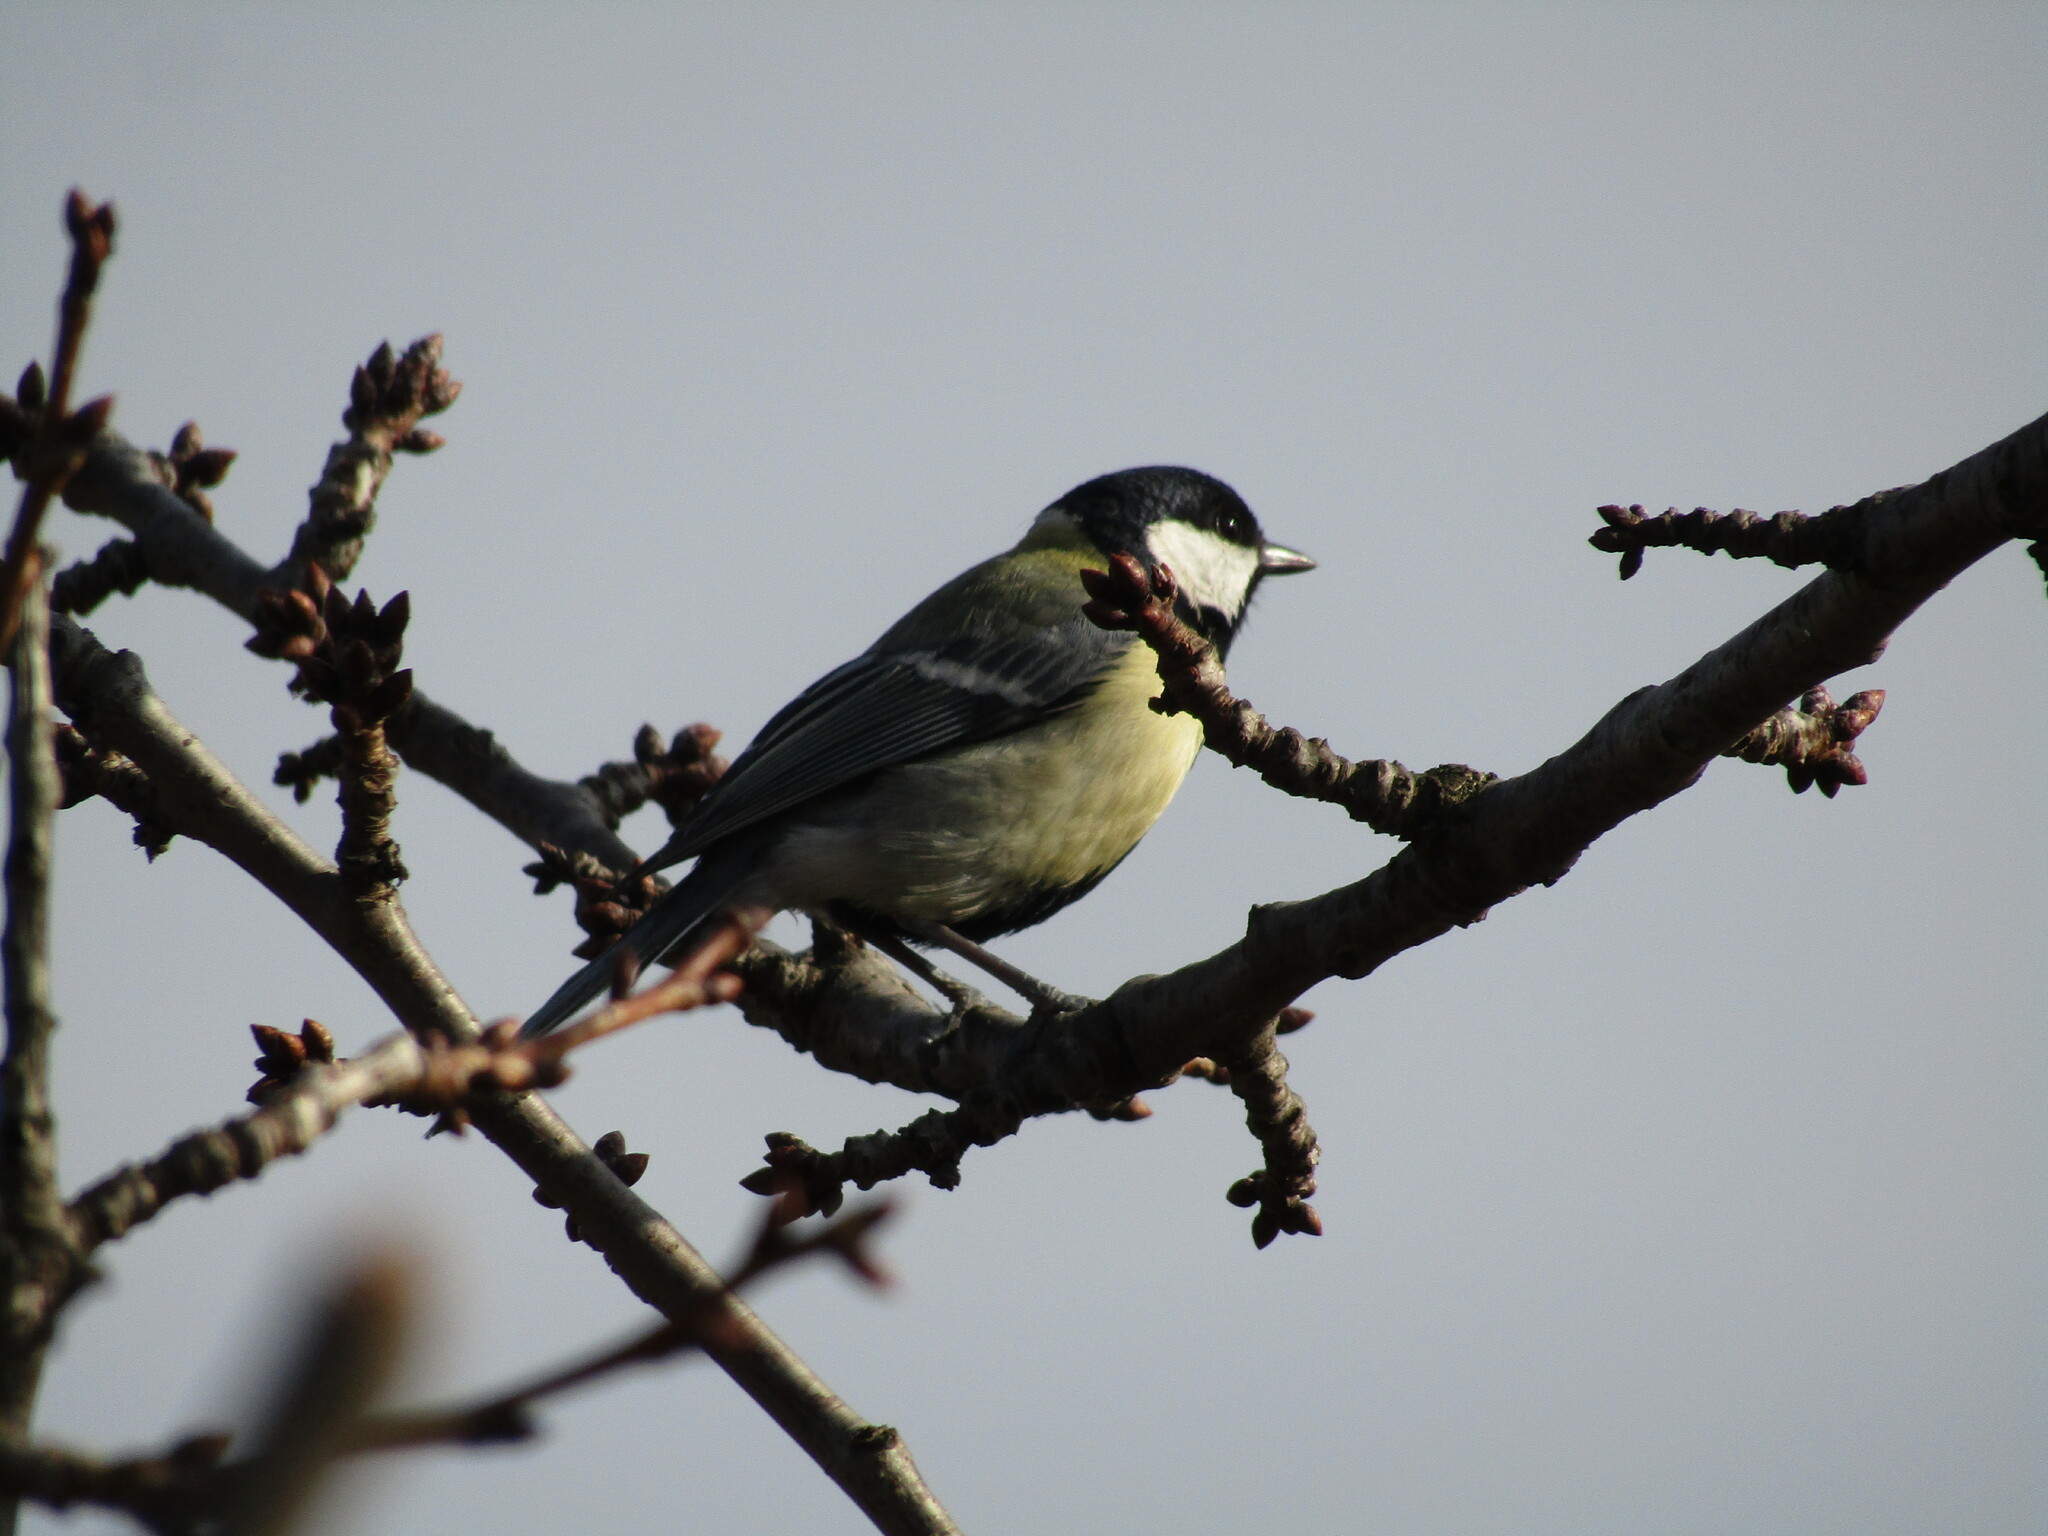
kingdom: Animalia
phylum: Chordata
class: Aves
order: Passeriformes
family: Paridae
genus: Parus
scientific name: Parus major
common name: Great tit
